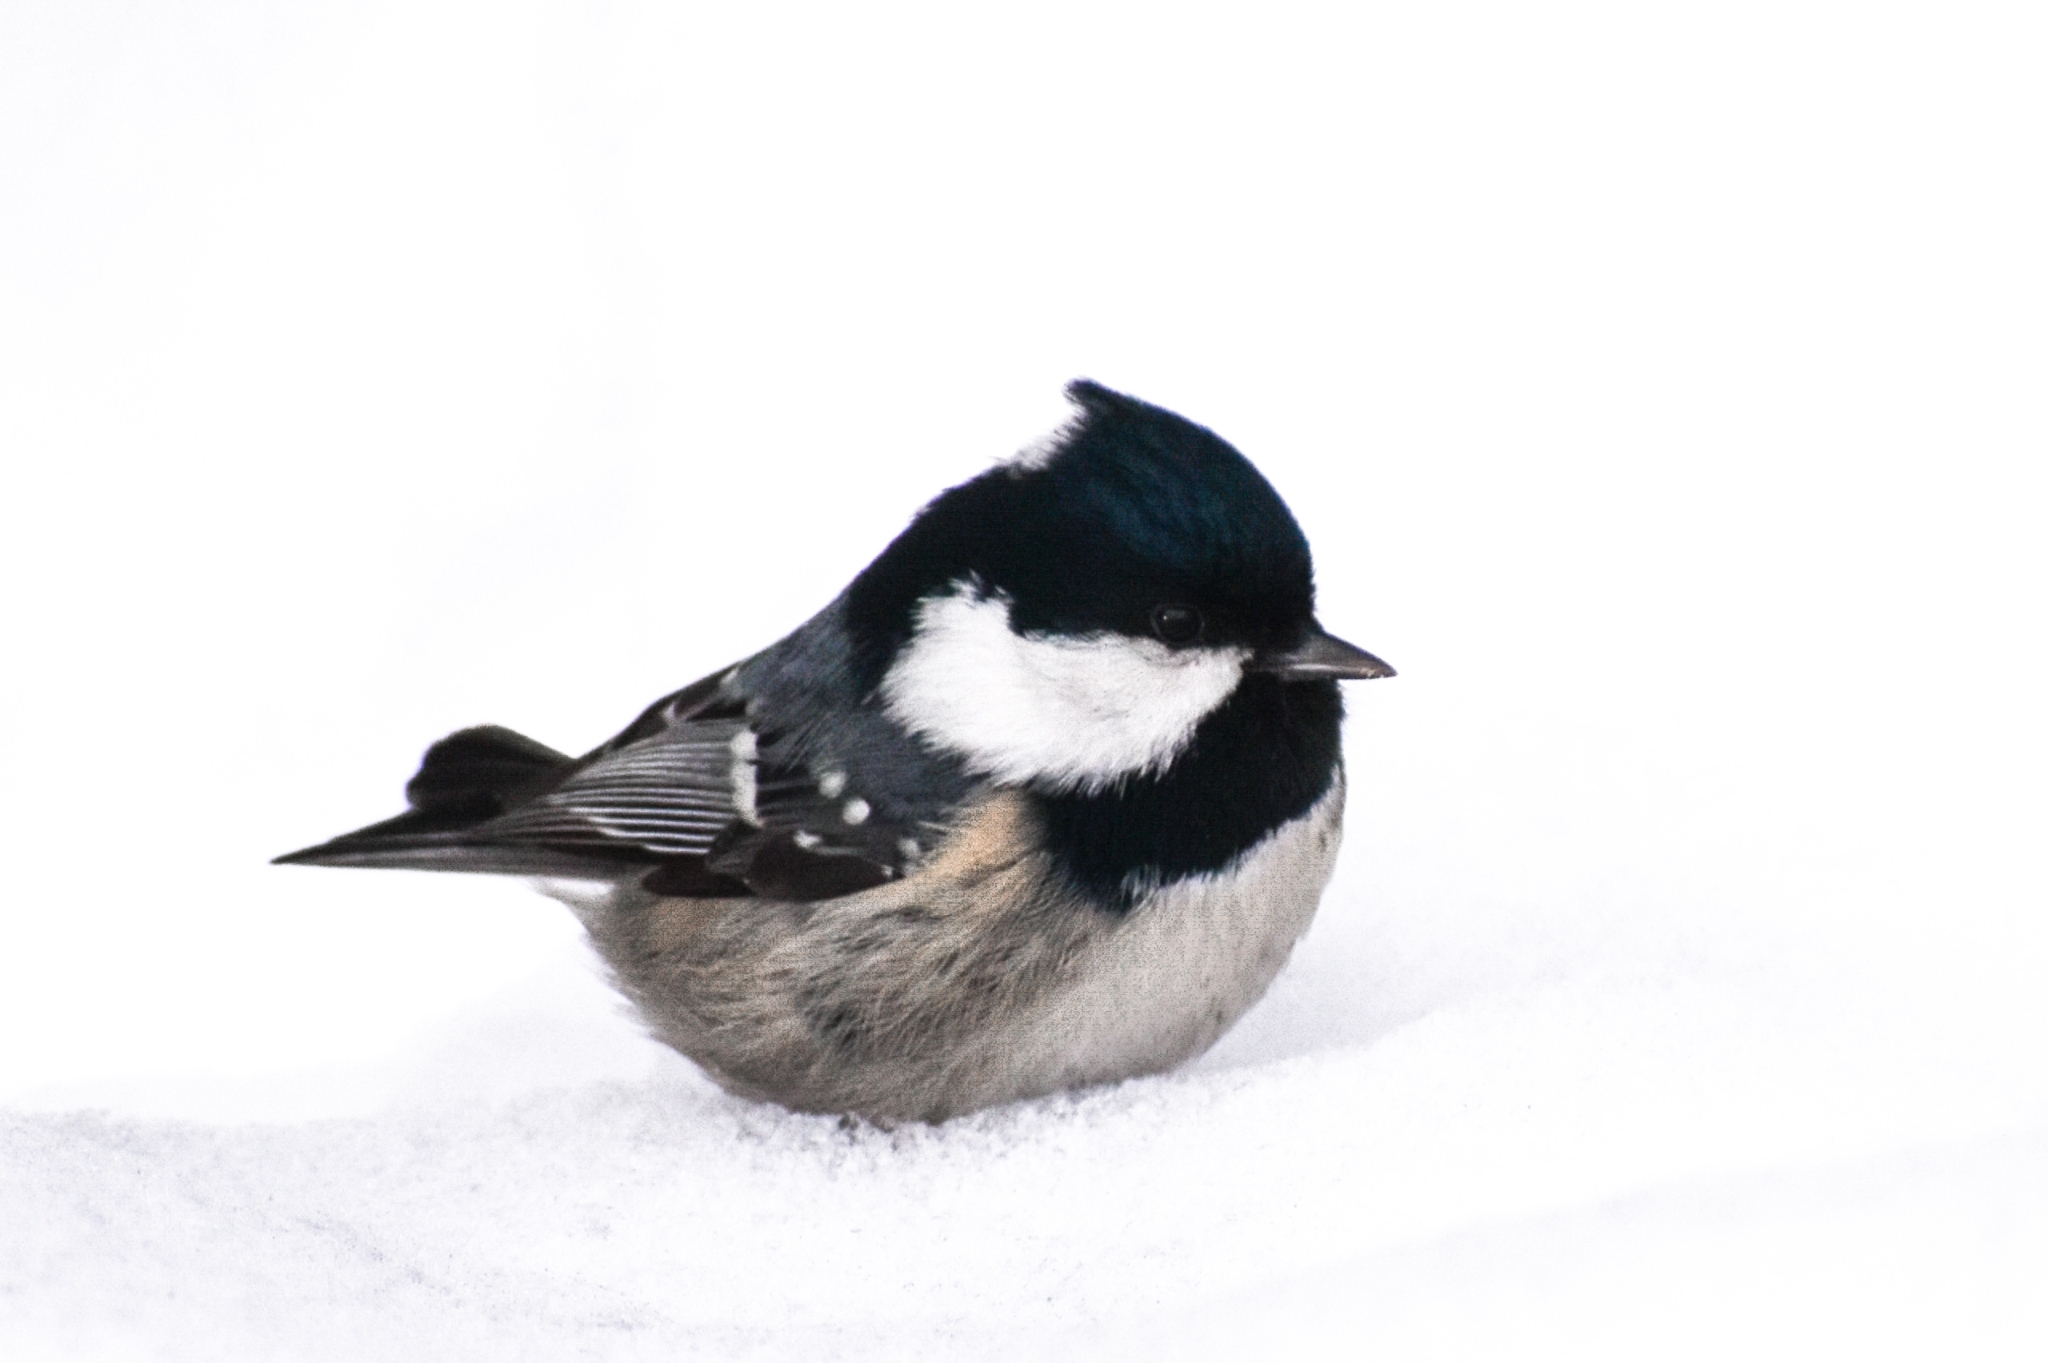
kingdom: Animalia
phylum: Chordata
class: Aves
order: Passeriformes
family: Paridae
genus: Periparus
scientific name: Periparus ater
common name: Coal tit
